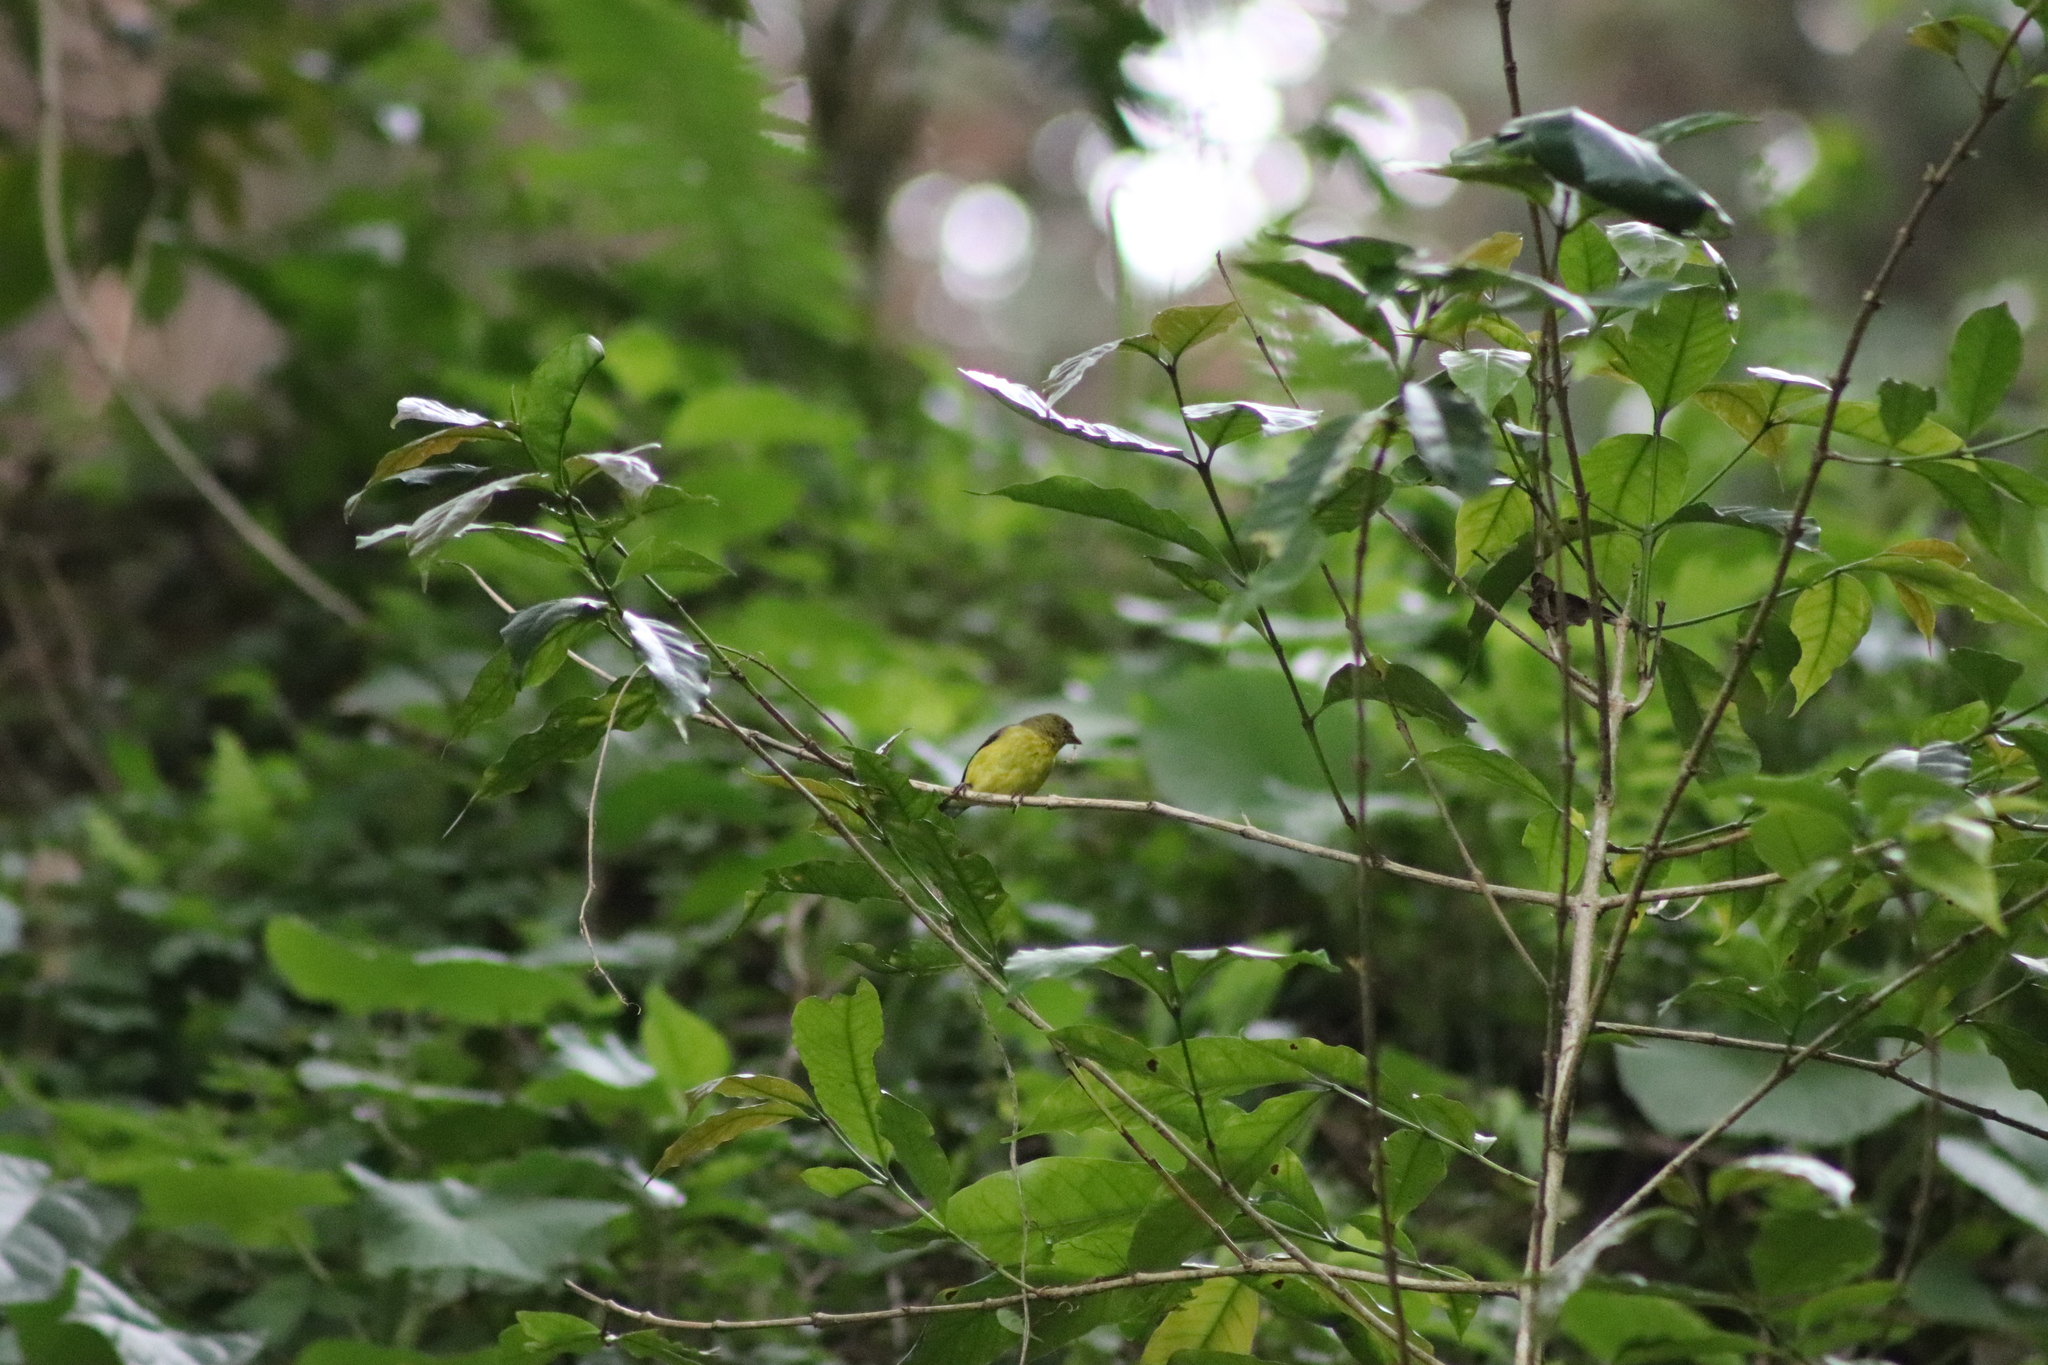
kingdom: Animalia
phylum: Chordata
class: Aves
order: Passeriformes
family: Fringillidae
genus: Spinus
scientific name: Spinus psaltria
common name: Lesser goldfinch
